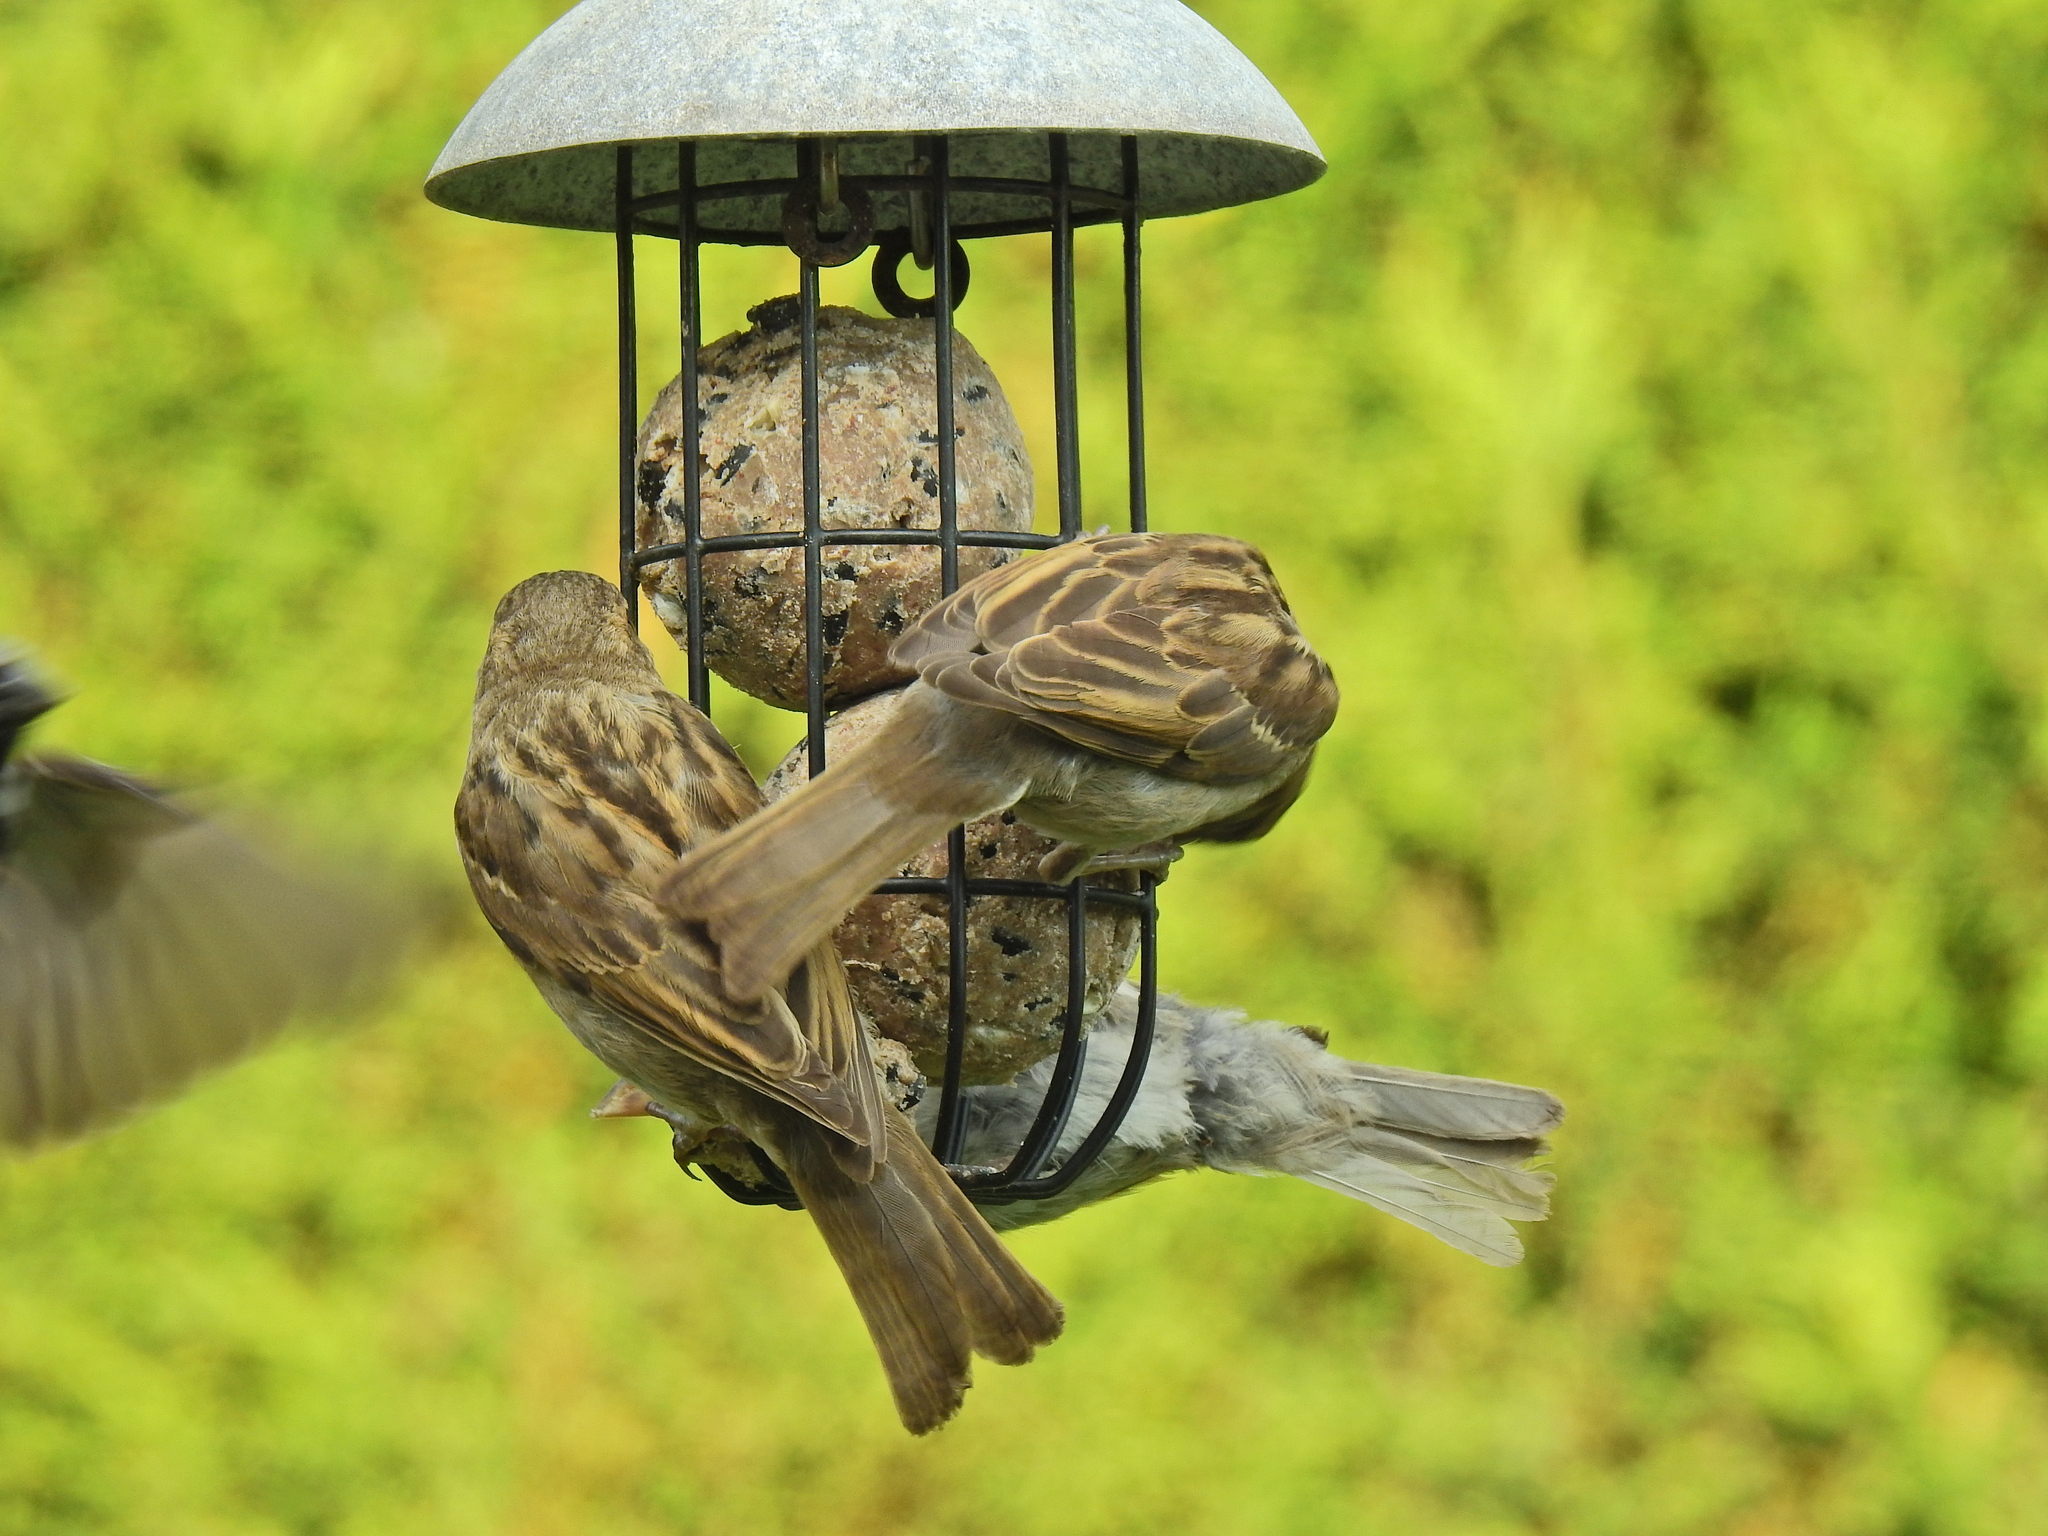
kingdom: Animalia
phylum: Chordata
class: Aves
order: Passeriformes
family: Passeridae
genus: Passer
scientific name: Passer domesticus
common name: House sparrow
